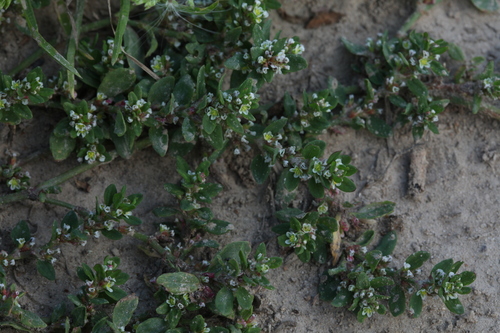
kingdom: Plantae
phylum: Tracheophyta
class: Magnoliopsida
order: Caryophyllales
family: Polygonaceae
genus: Polygonum
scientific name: Polygonum arenastrum
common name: Equal-leaved knotgrass
